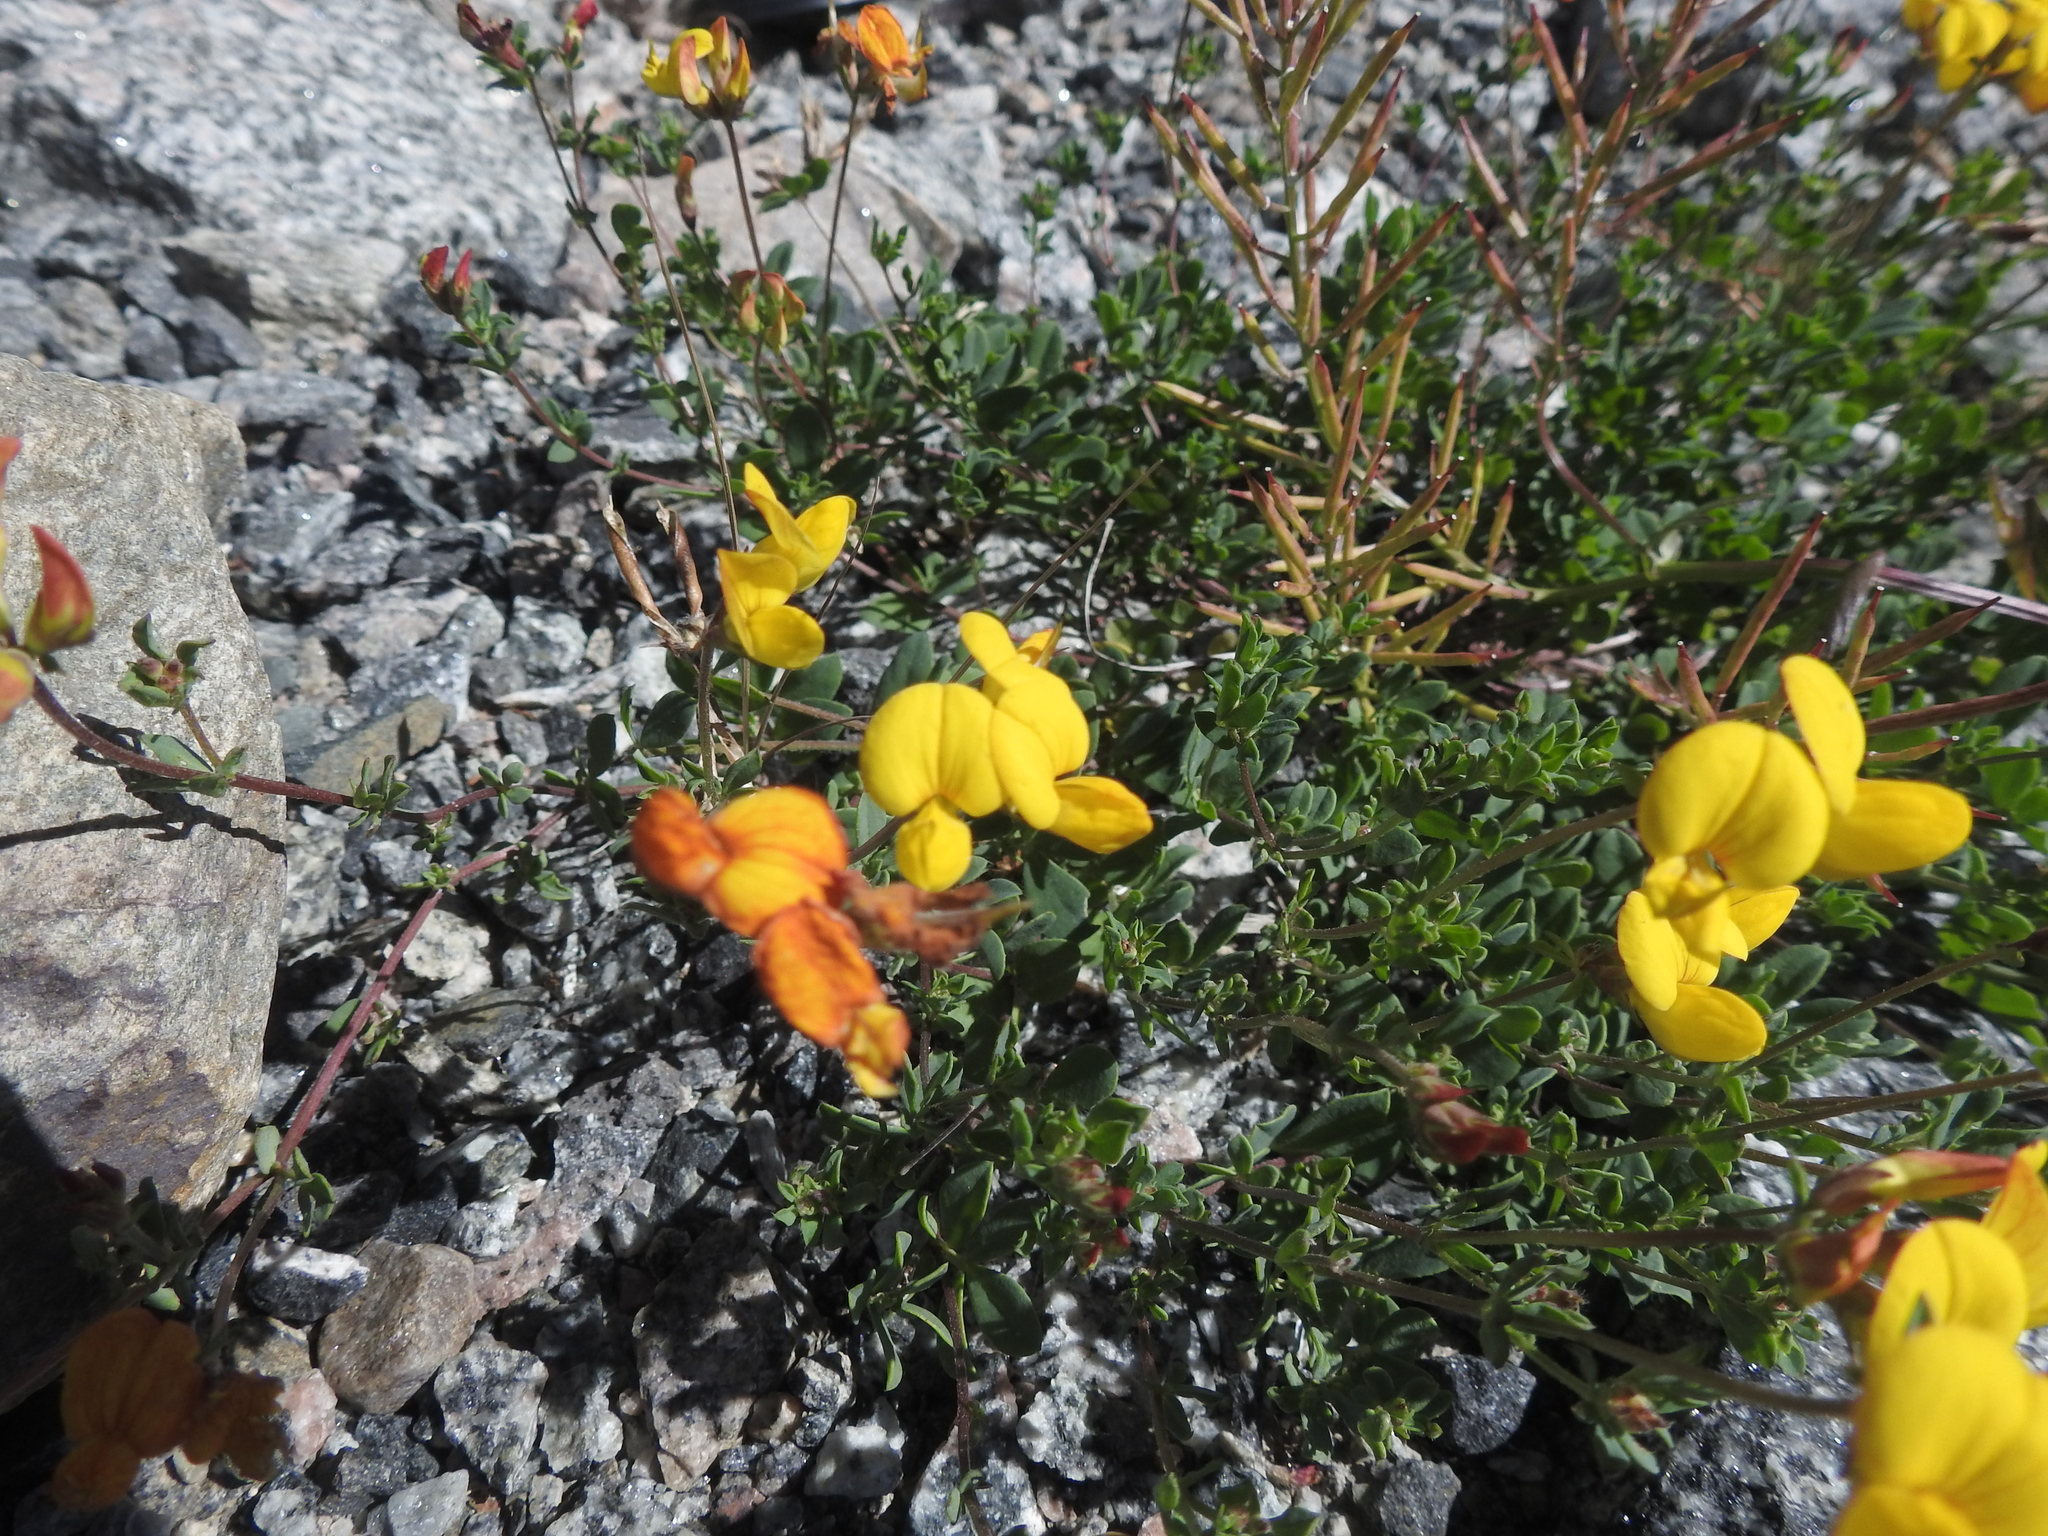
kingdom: Plantae
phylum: Tracheophyta
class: Magnoliopsida
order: Fabales
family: Fabaceae
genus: Lotus
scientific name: Lotus corniculatus
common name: Common bird's-foot-trefoil
